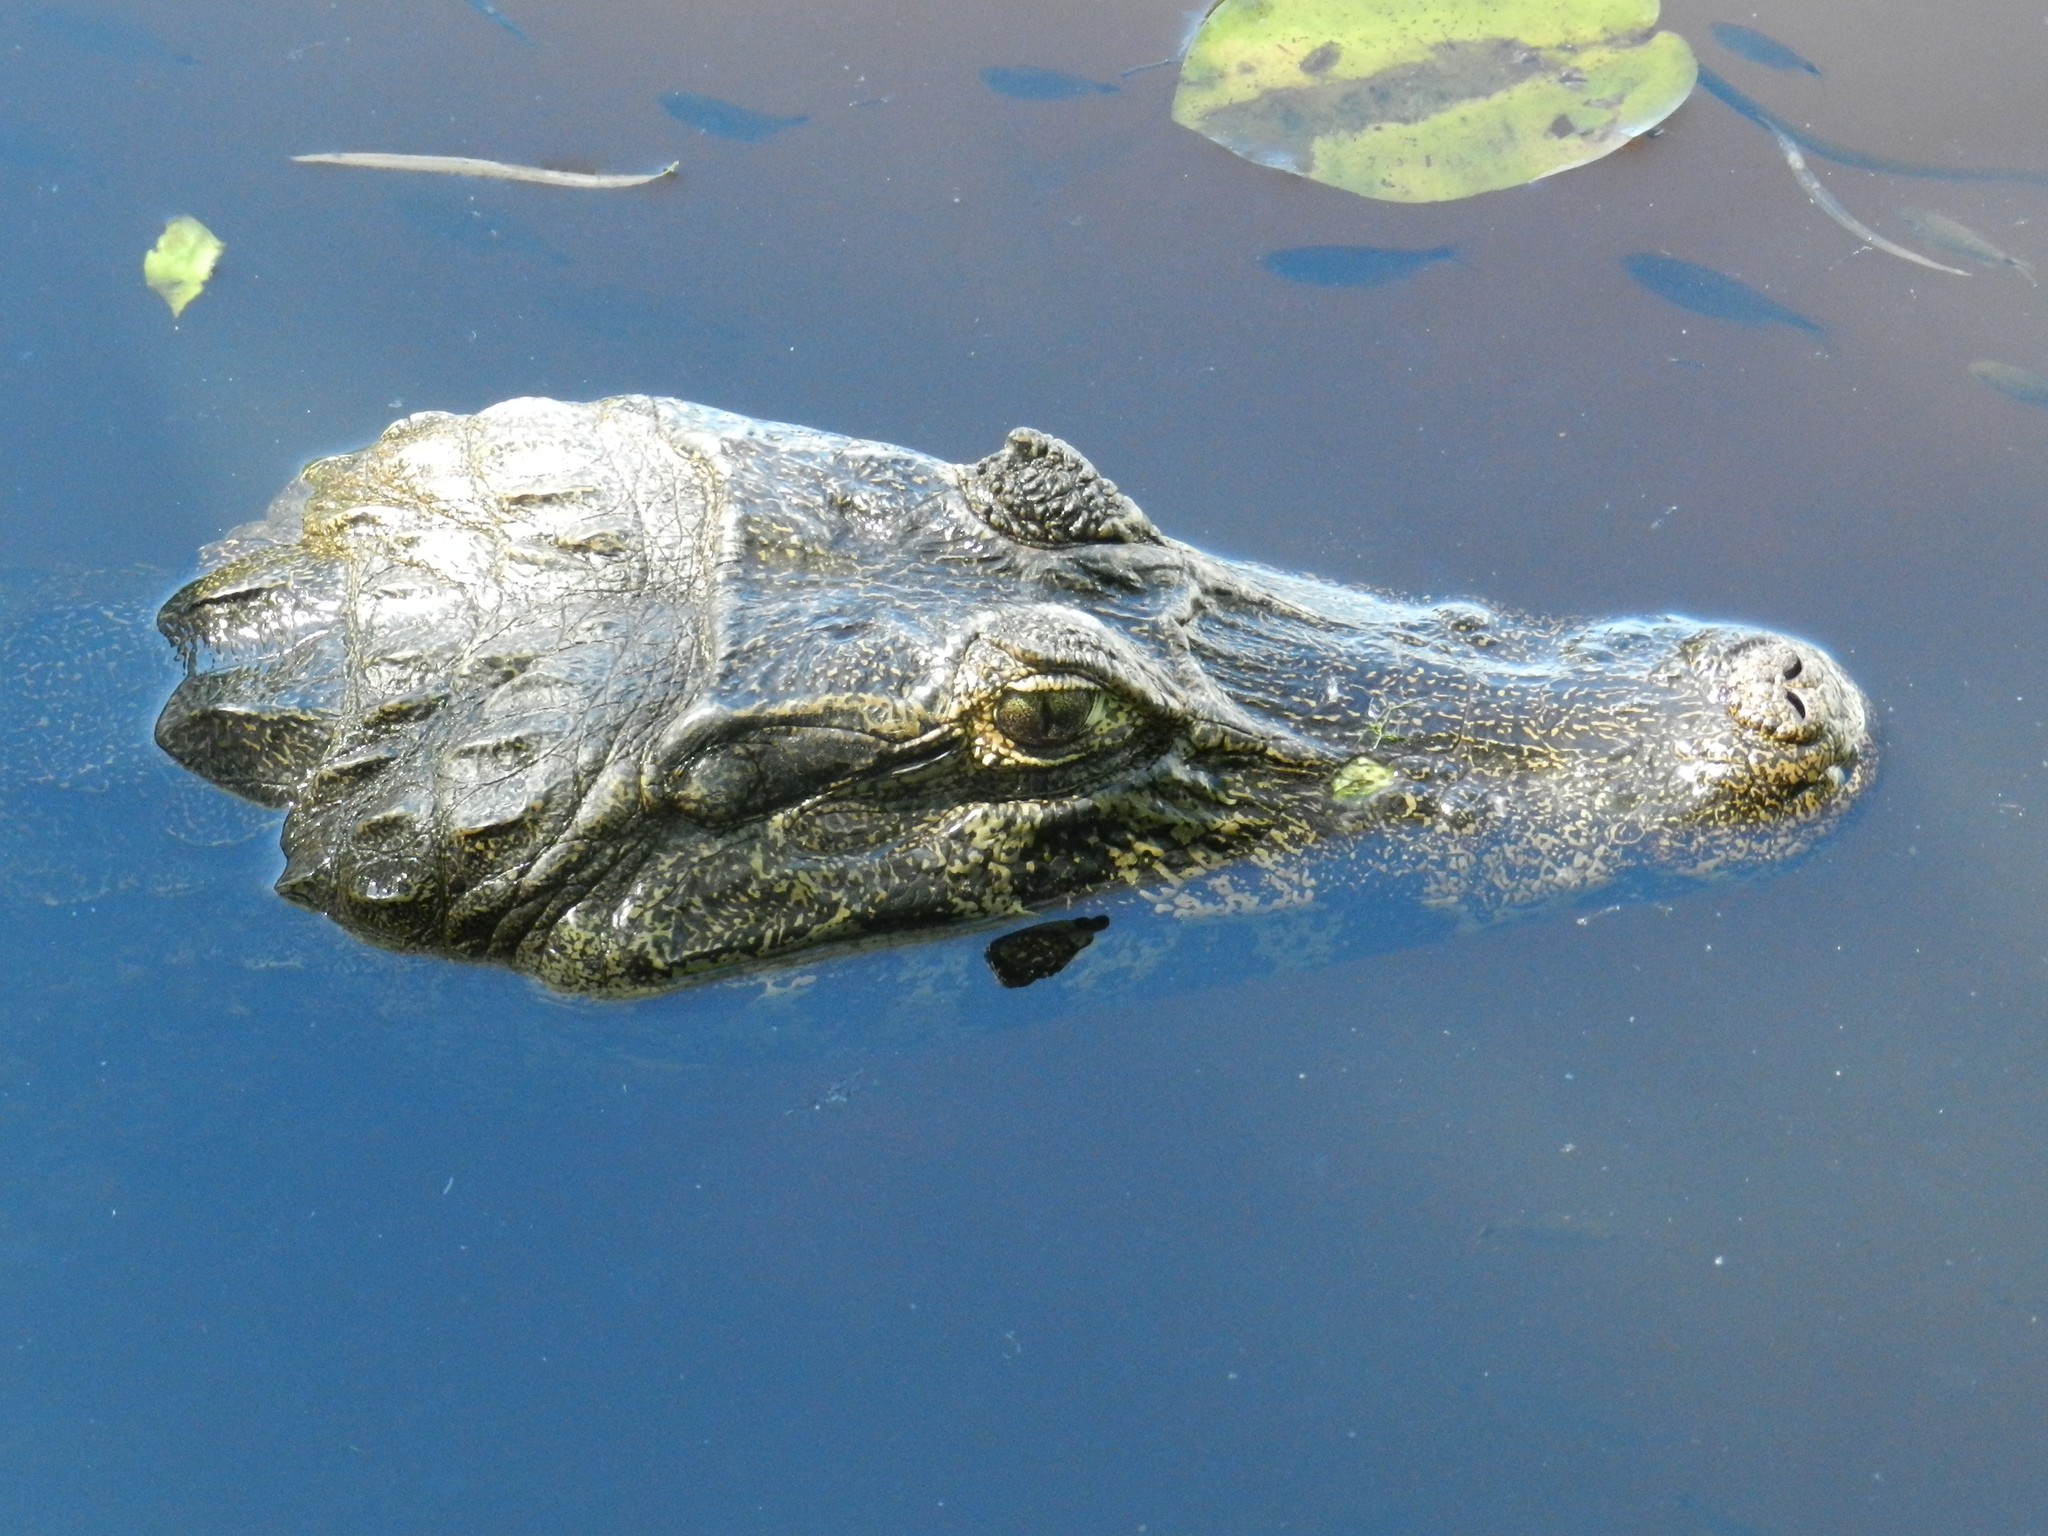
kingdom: Animalia
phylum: Chordata
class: Crocodylia
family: Alligatoridae
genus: Caiman
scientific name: Caiman yacare
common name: Yacare caiman
